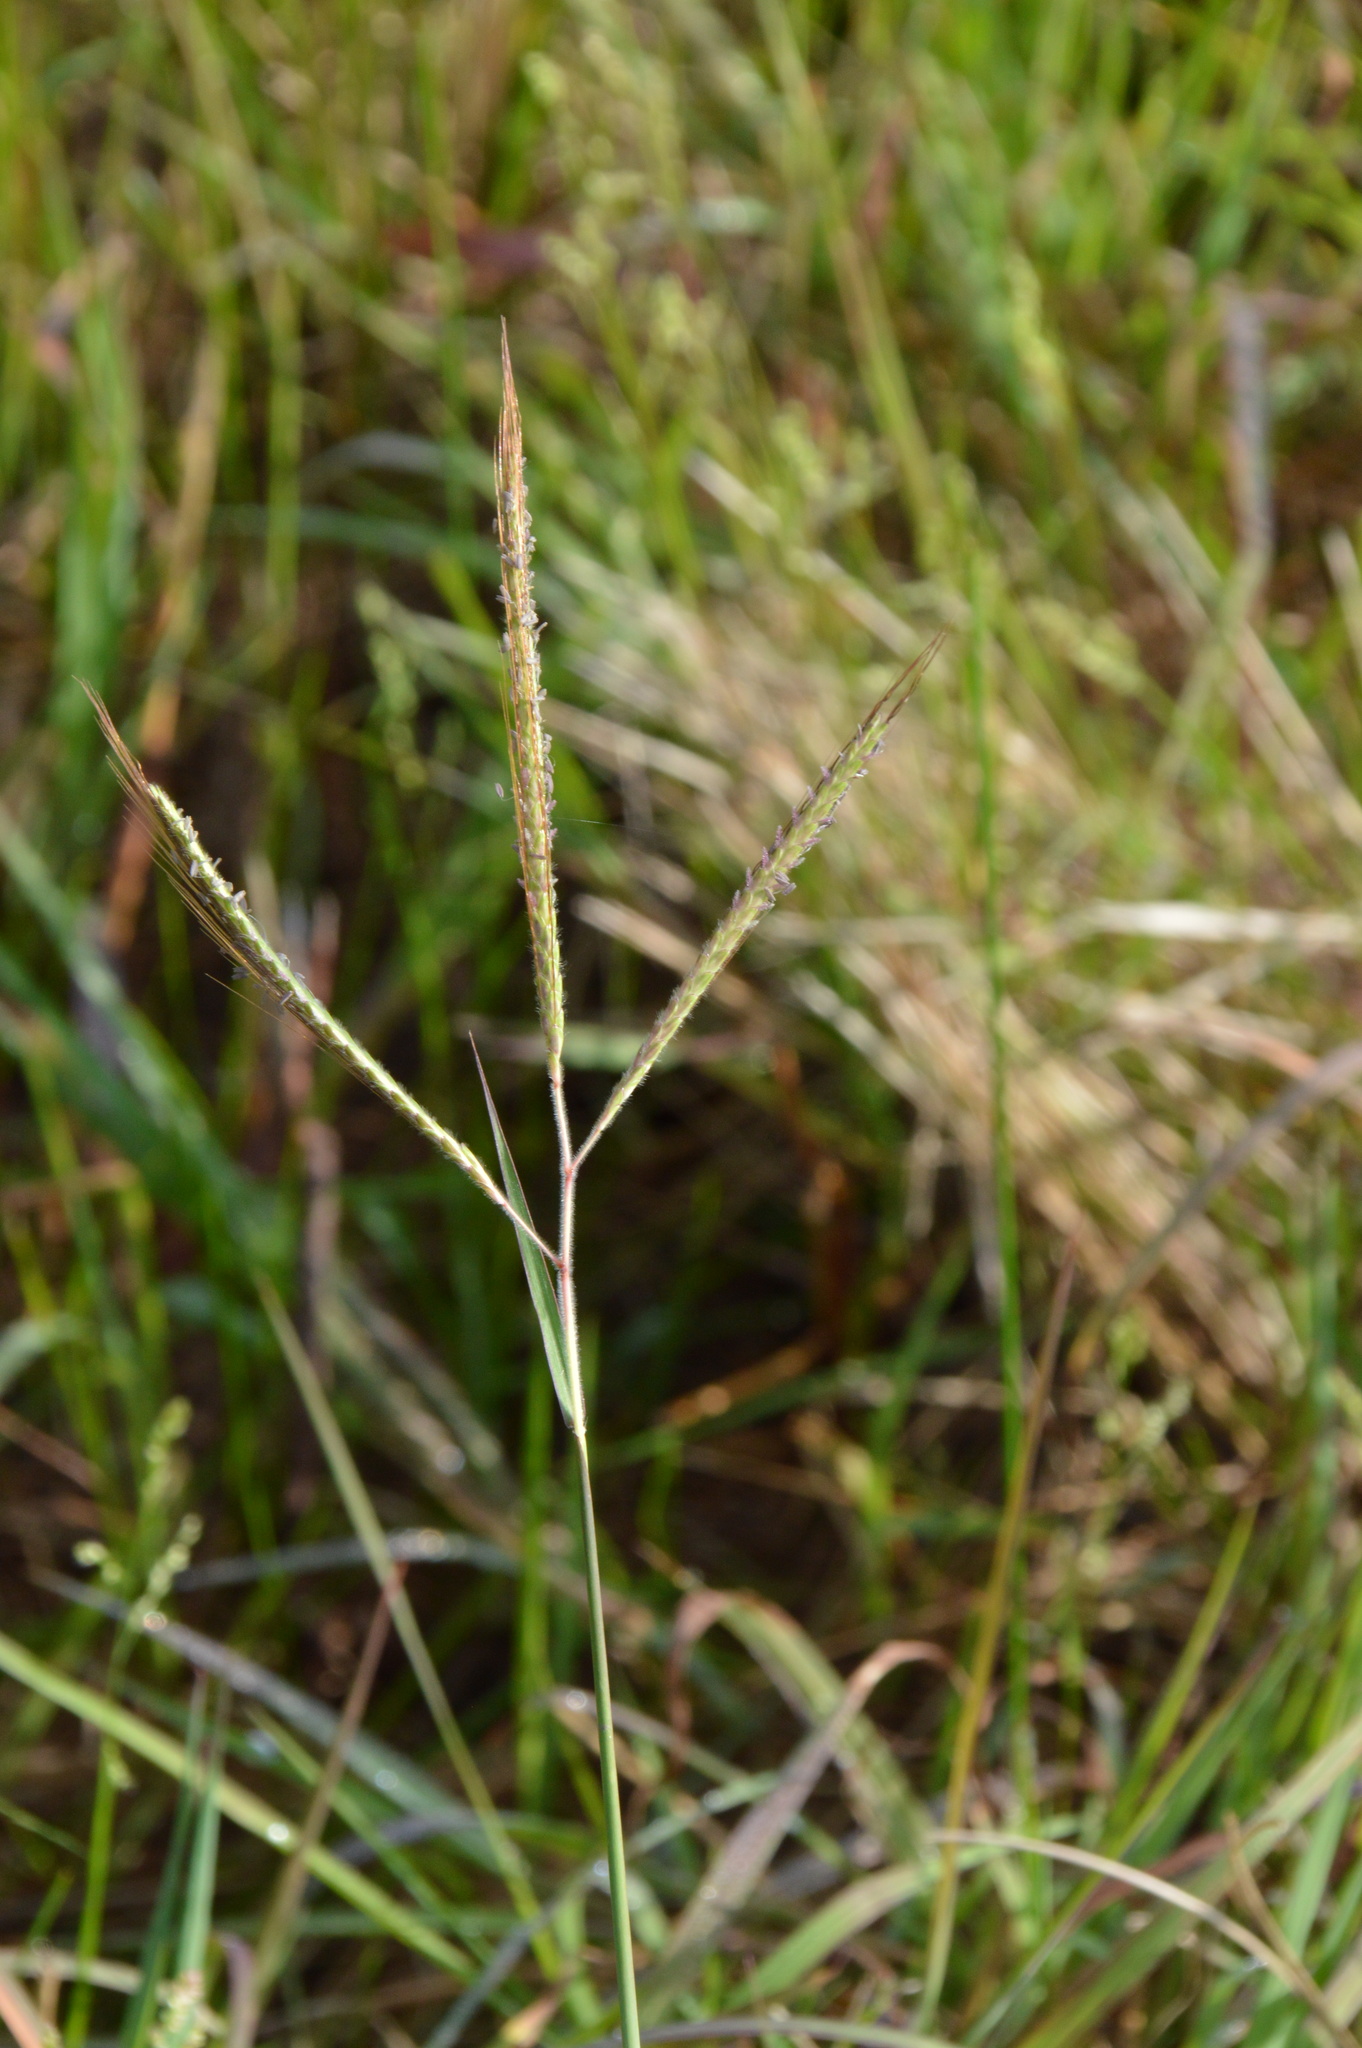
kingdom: Plantae
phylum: Tracheophyta
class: Liliopsida
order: Poales
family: Poaceae
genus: Dichanthium
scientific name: Dichanthium aristatum
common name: Angleton bluestem
